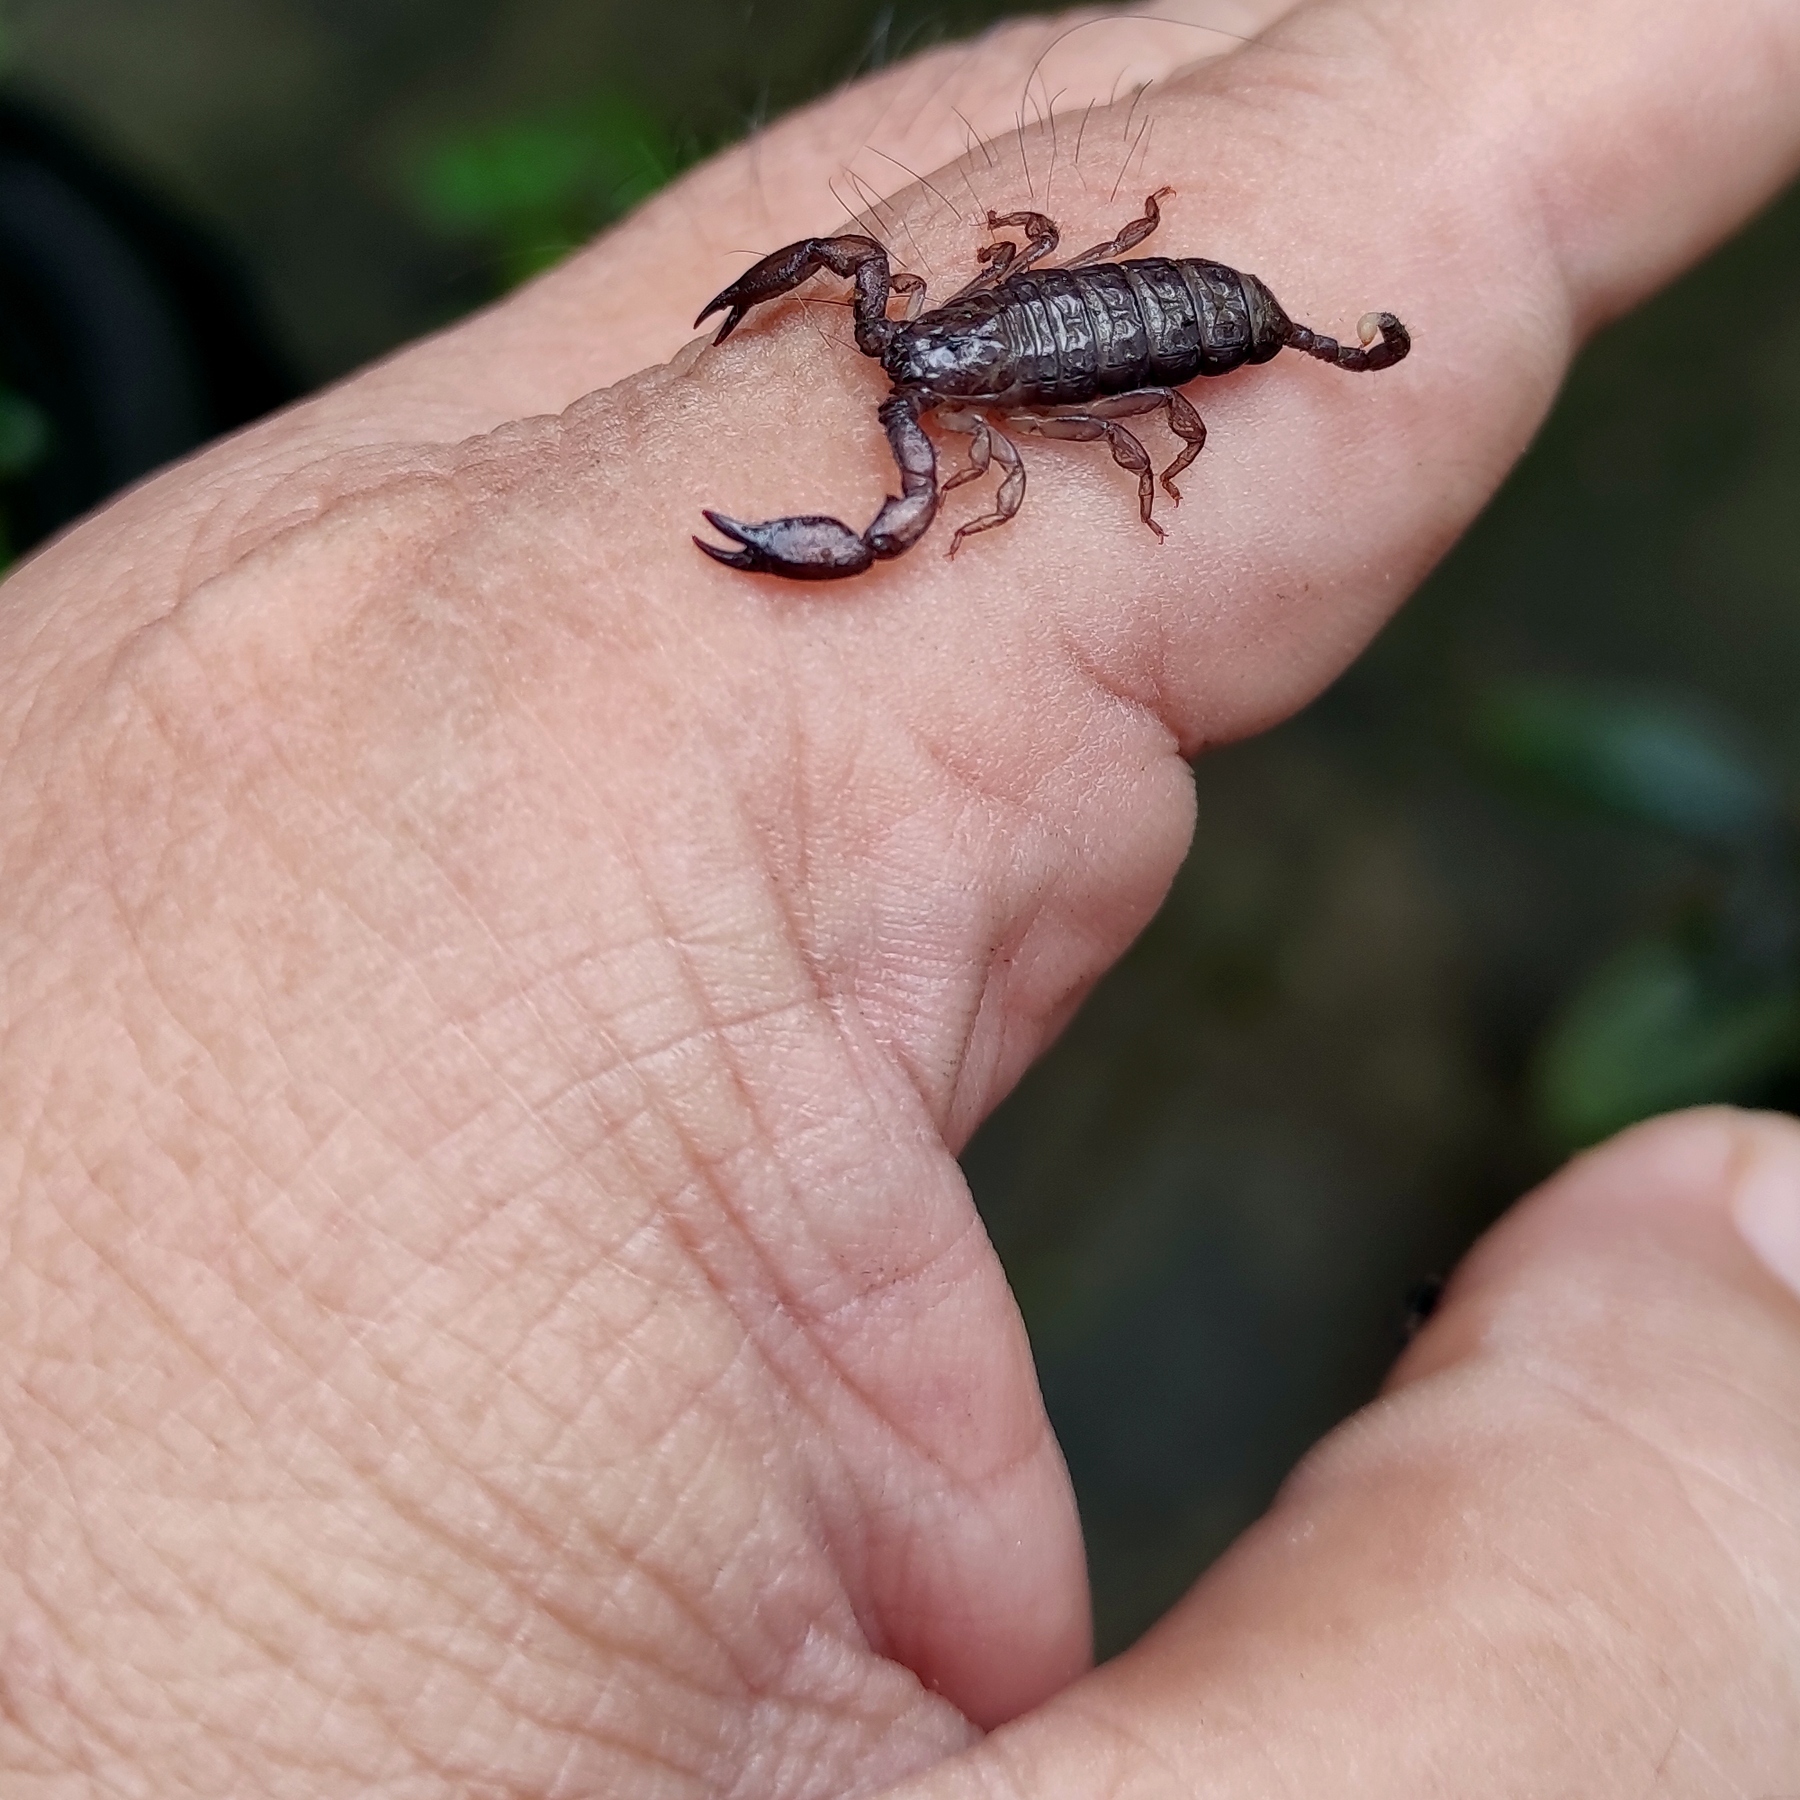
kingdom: Animalia
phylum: Arthropoda
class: Arachnida
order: Scorpiones
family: Hormuridae
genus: Liocheles
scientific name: Liocheles australasiae
